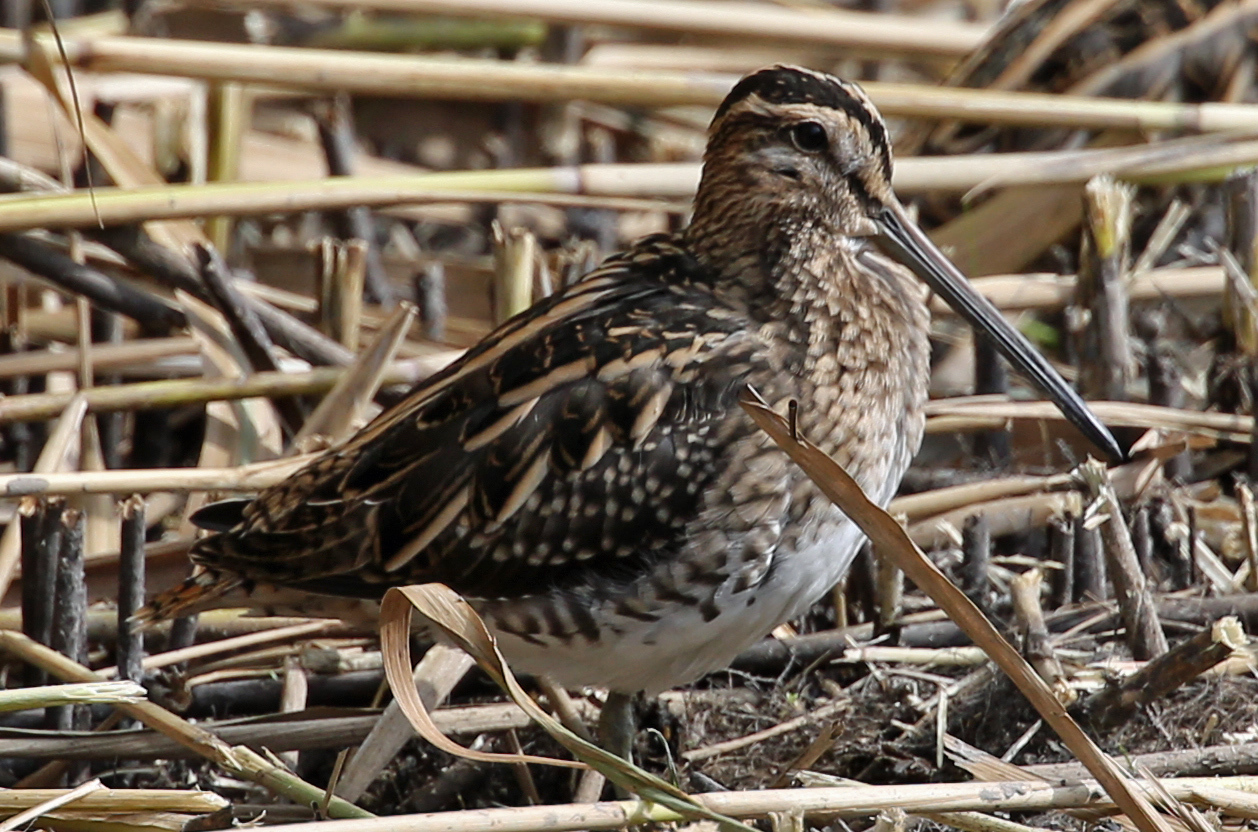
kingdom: Animalia
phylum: Chordata
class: Aves
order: Charadriiformes
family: Scolopacidae
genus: Gallinago
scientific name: Gallinago gallinago
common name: Common snipe
